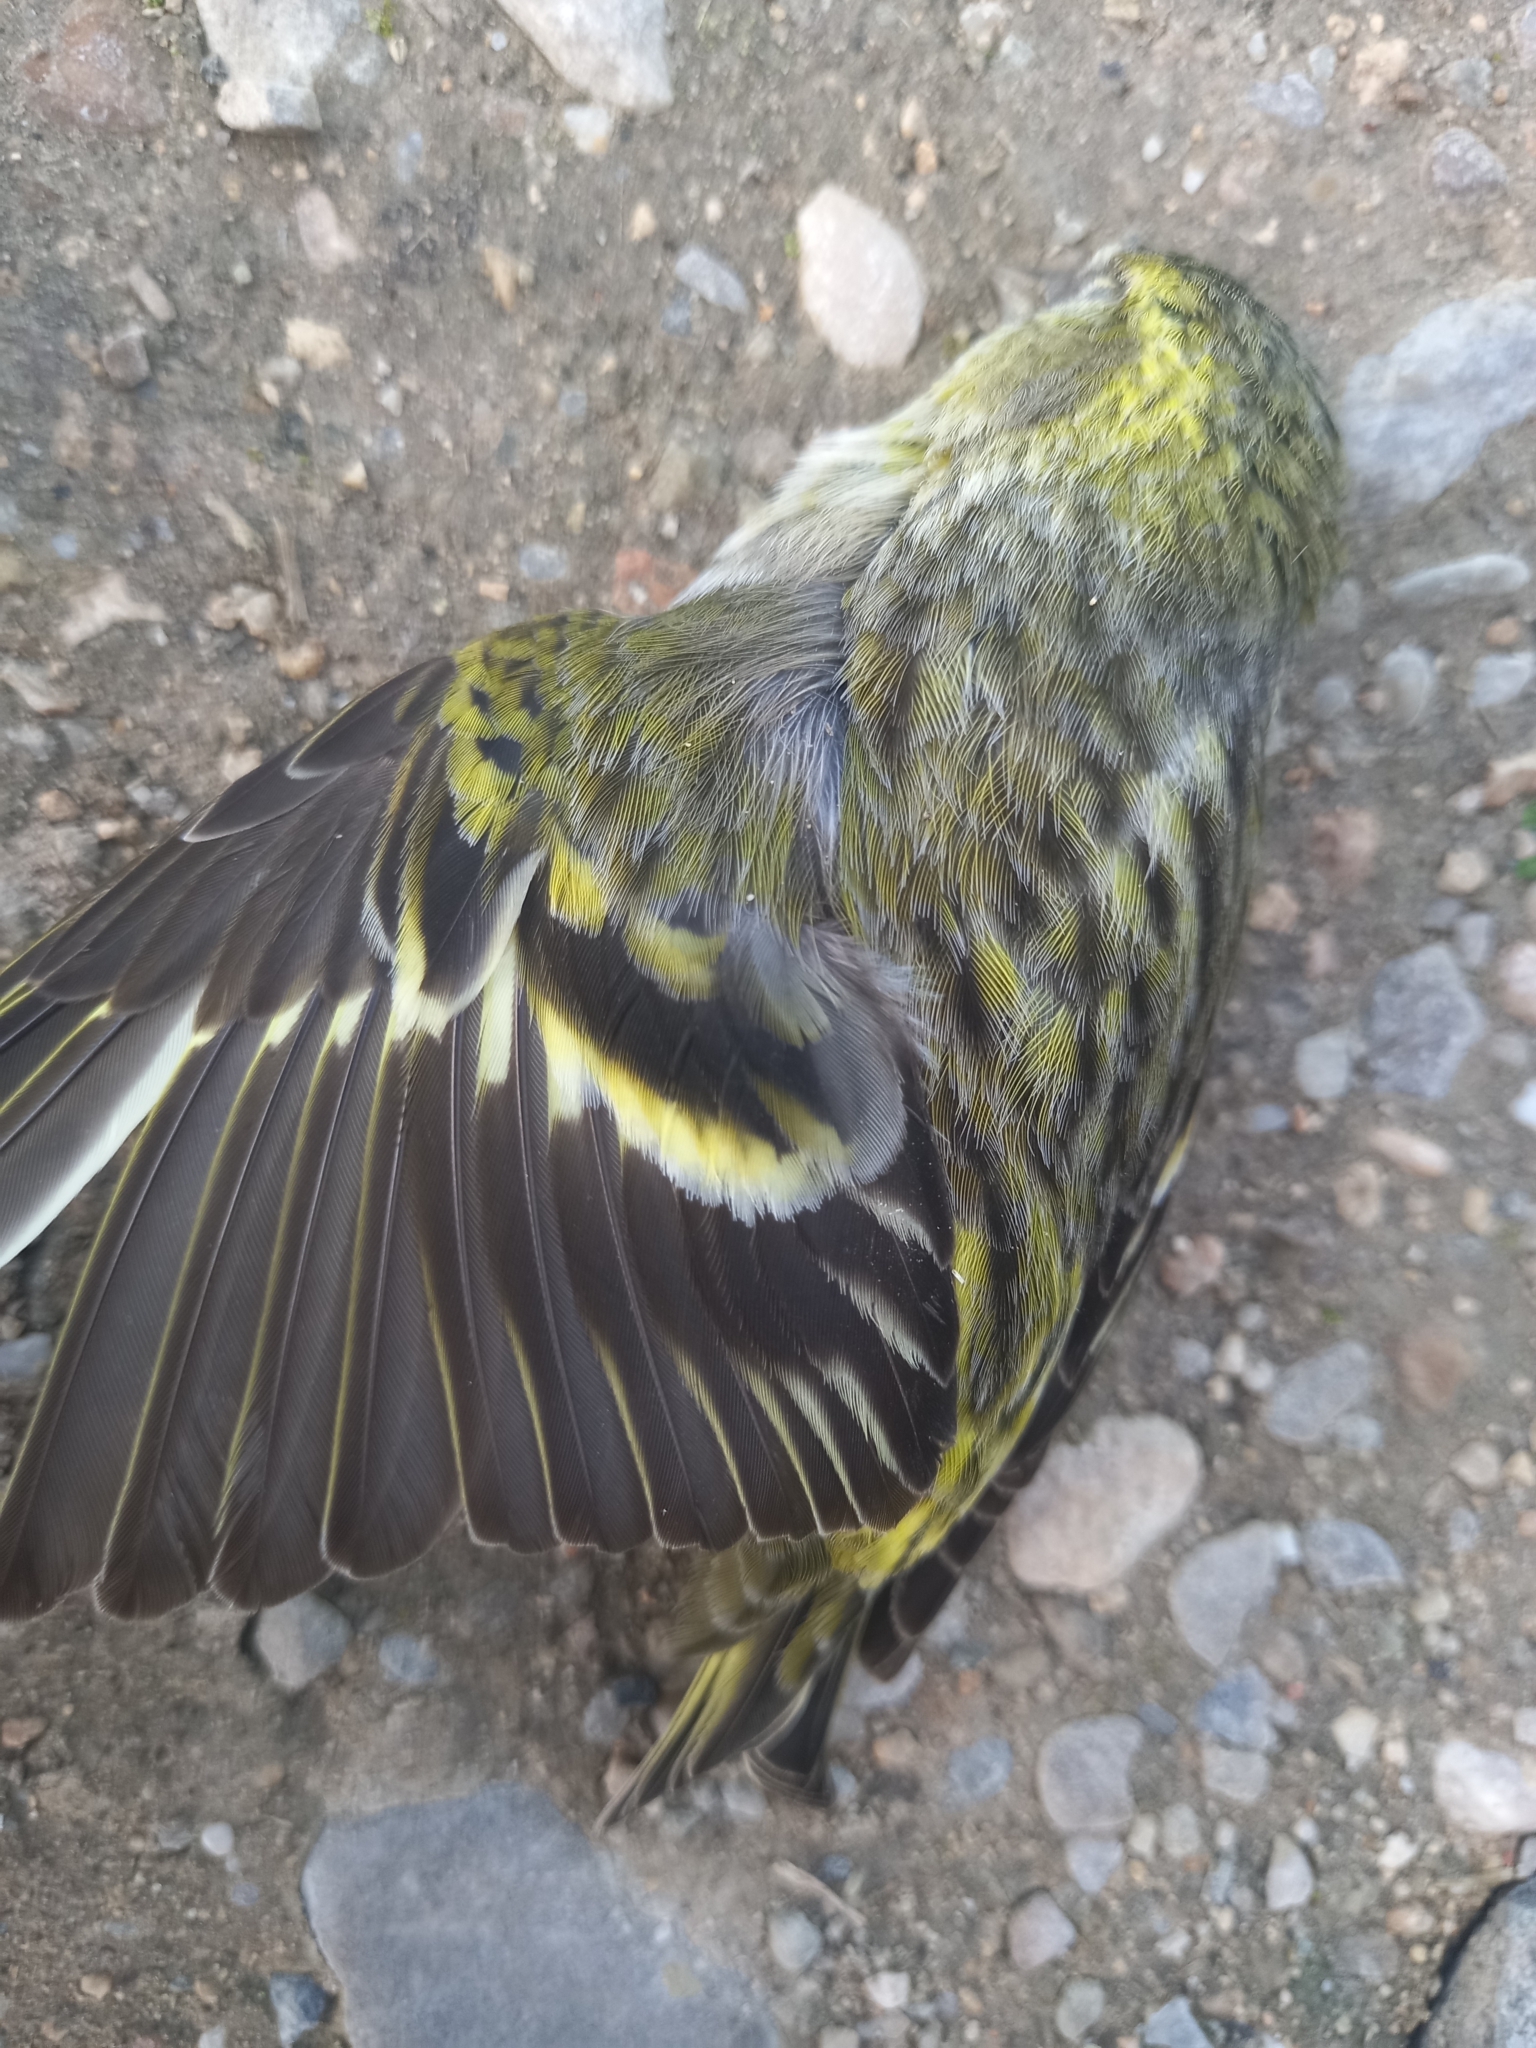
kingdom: Animalia
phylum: Chordata
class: Aves
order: Passeriformes
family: Fringillidae
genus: Spinus
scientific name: Spinus spinus
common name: Eurasian siskin
